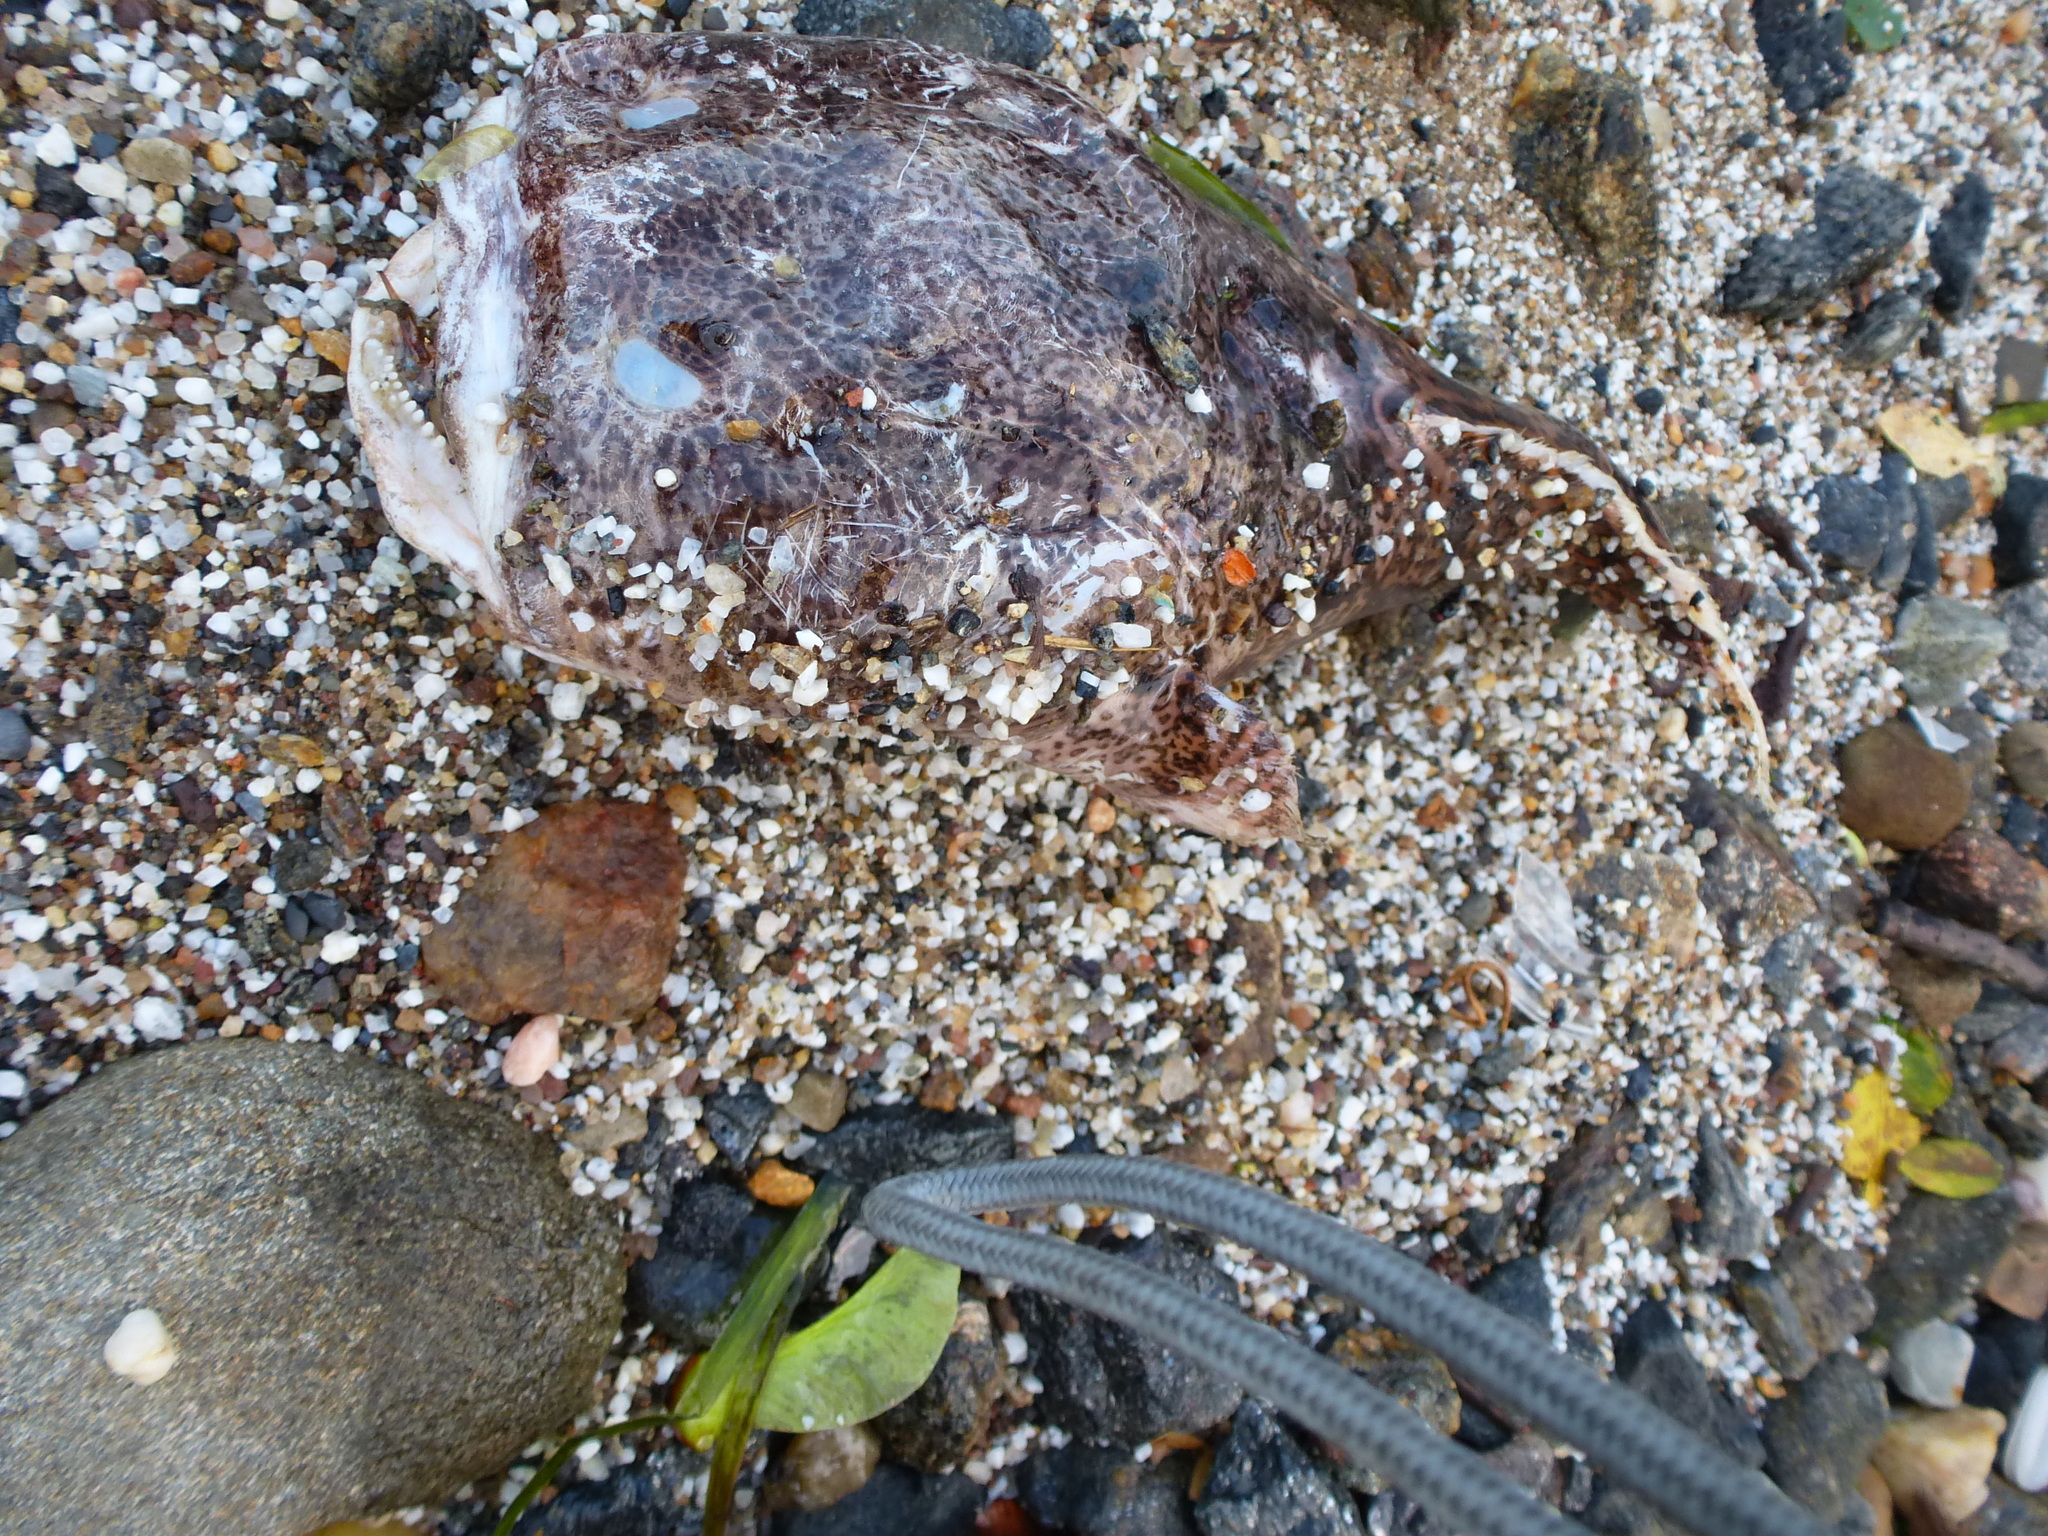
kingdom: Animalia
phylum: Chordata
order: Batrachoidiformes
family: Batrachoididae
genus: Opsanus
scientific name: Opsanus tau
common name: Oyster toadfish
